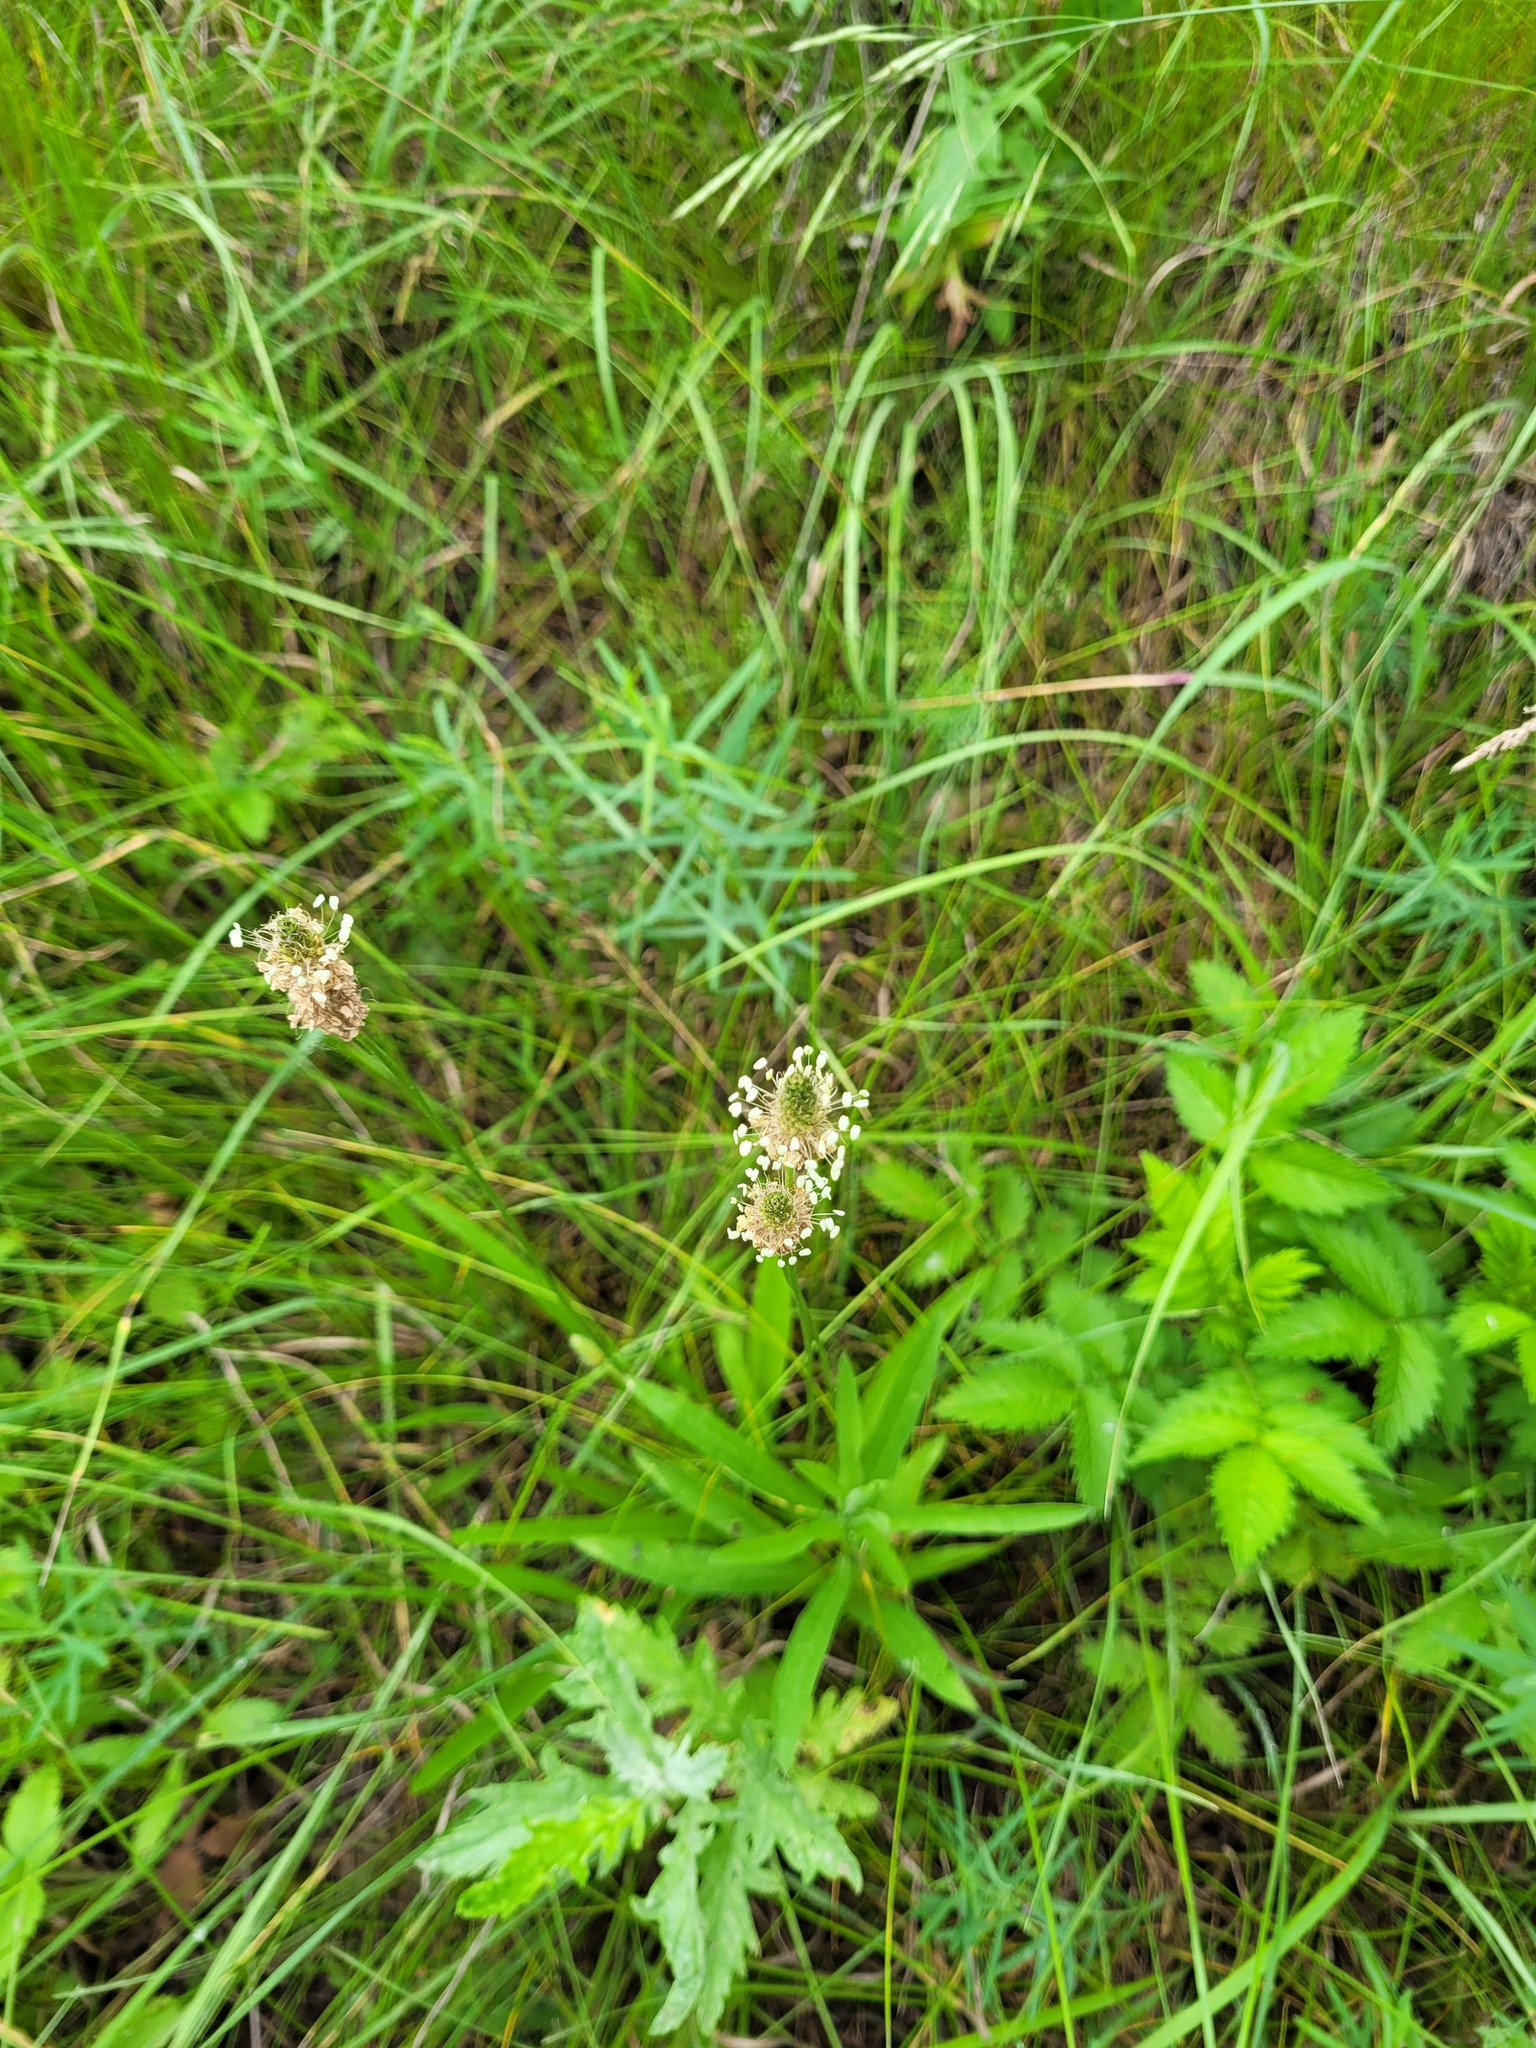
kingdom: Plantae
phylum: Tracheophyta
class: Magnoliopsida
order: Lamiales
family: Plantaginaceae
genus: Plantago
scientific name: Plantago lanceolata
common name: Ribwort plantain
